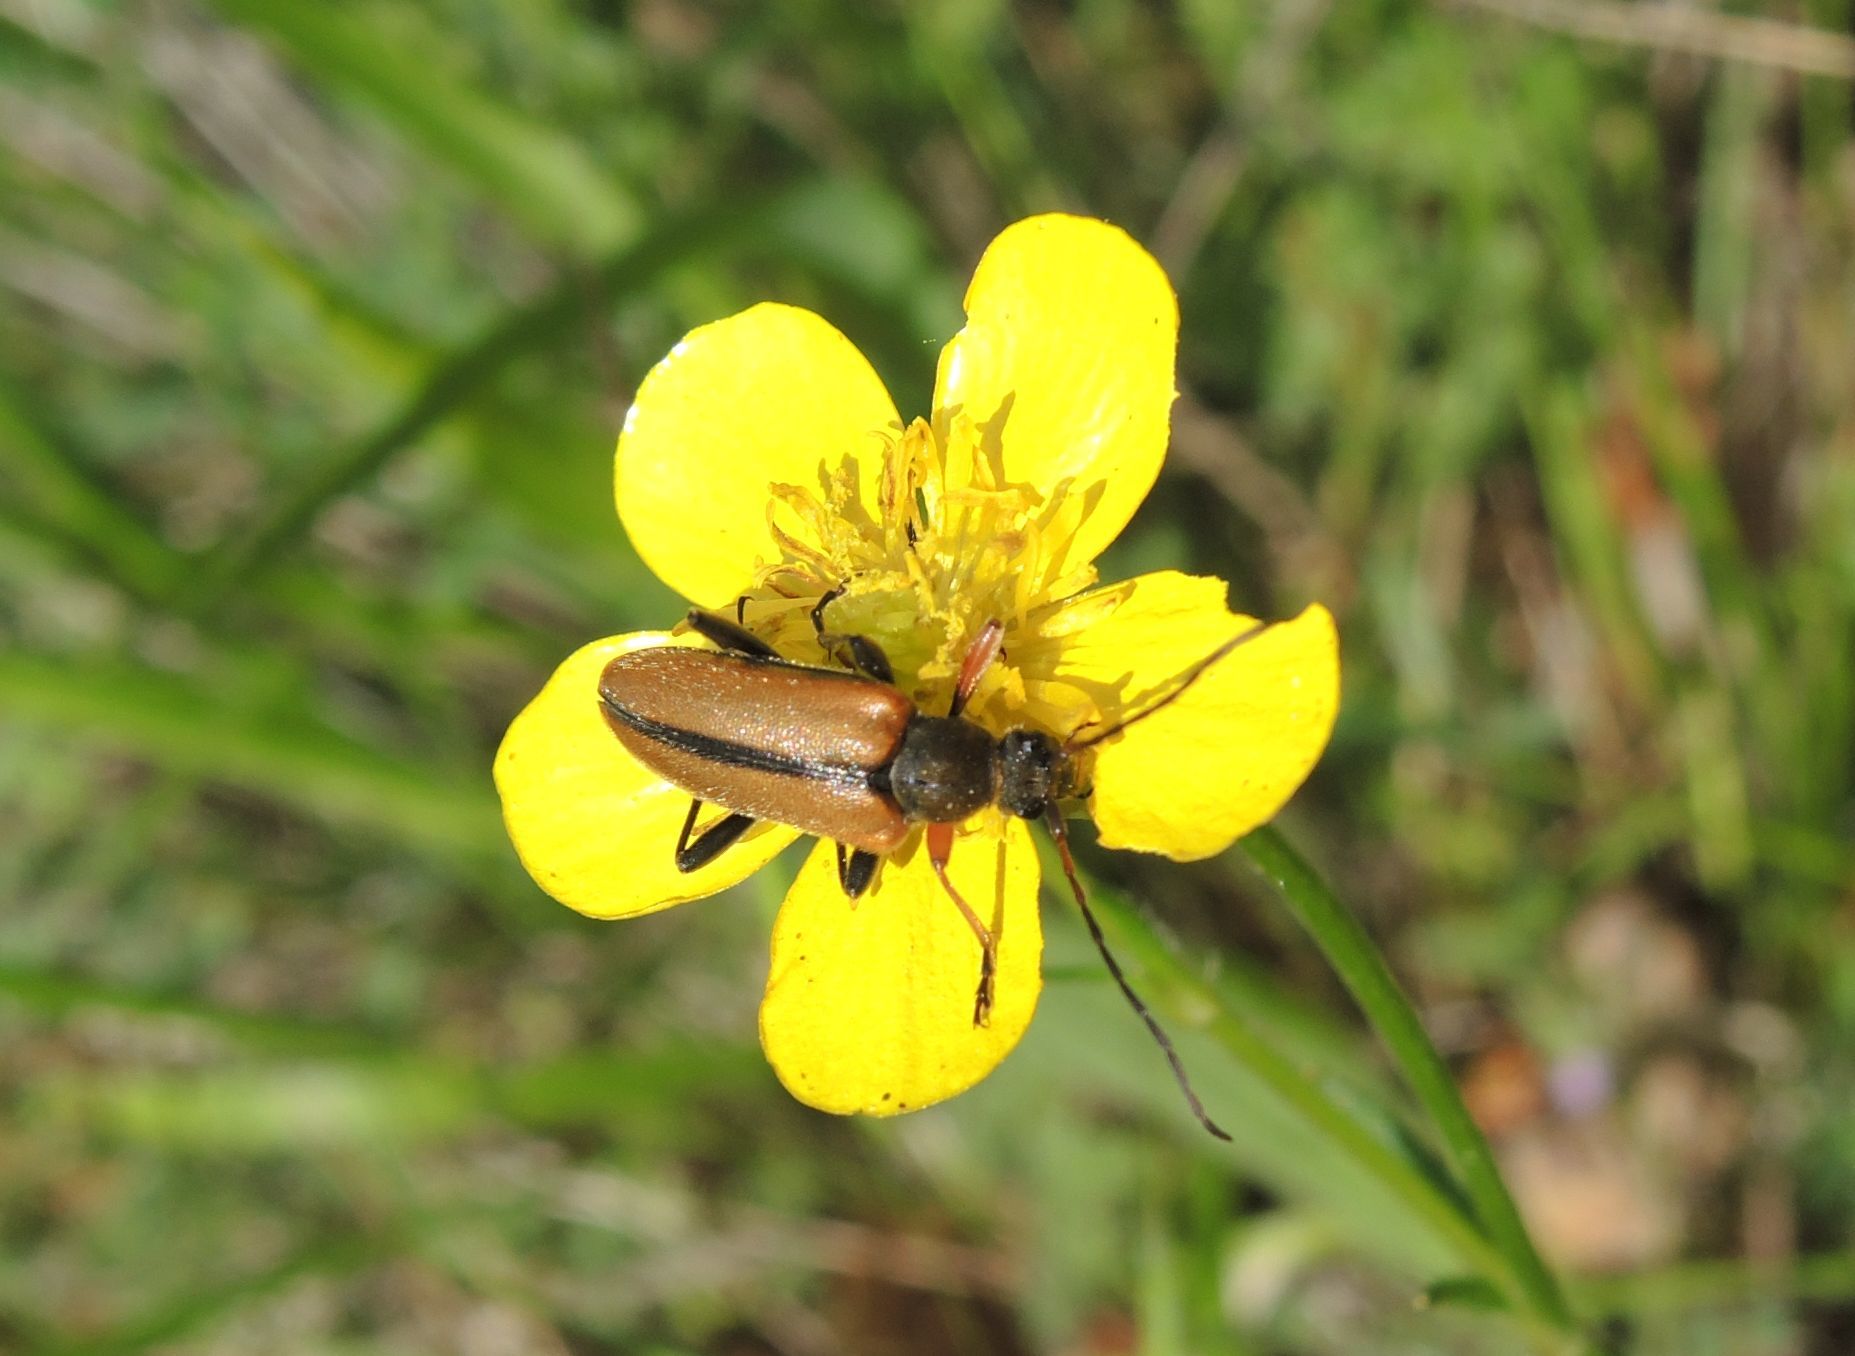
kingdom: Animalia
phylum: Arthropoda
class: Insecta
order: Coleoptera
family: Cerambycidae
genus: Cortodera
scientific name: Cortodera flavimana
